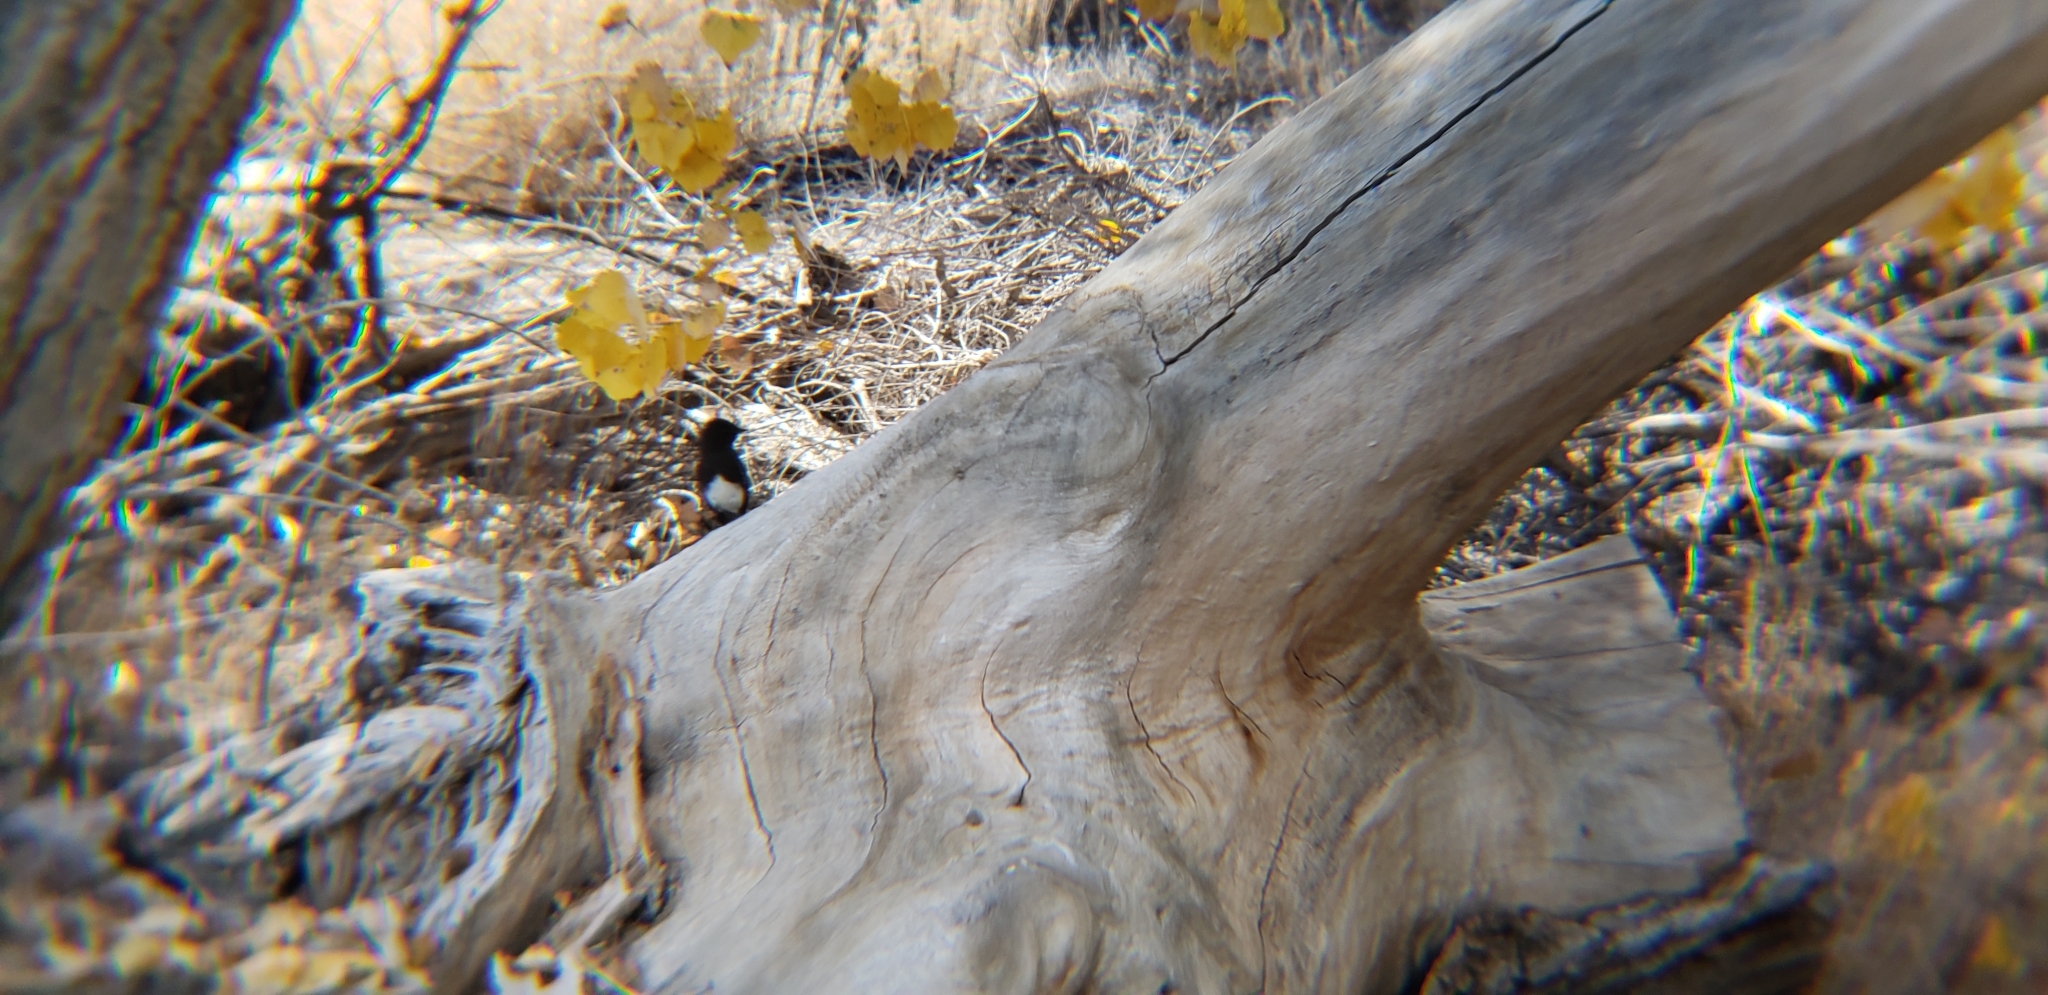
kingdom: Animalia
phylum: Chordata
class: Aves
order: Passeriformes
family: Tyrannidae
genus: Sayornis
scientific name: Sayornis nigricans
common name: Black phoebe
